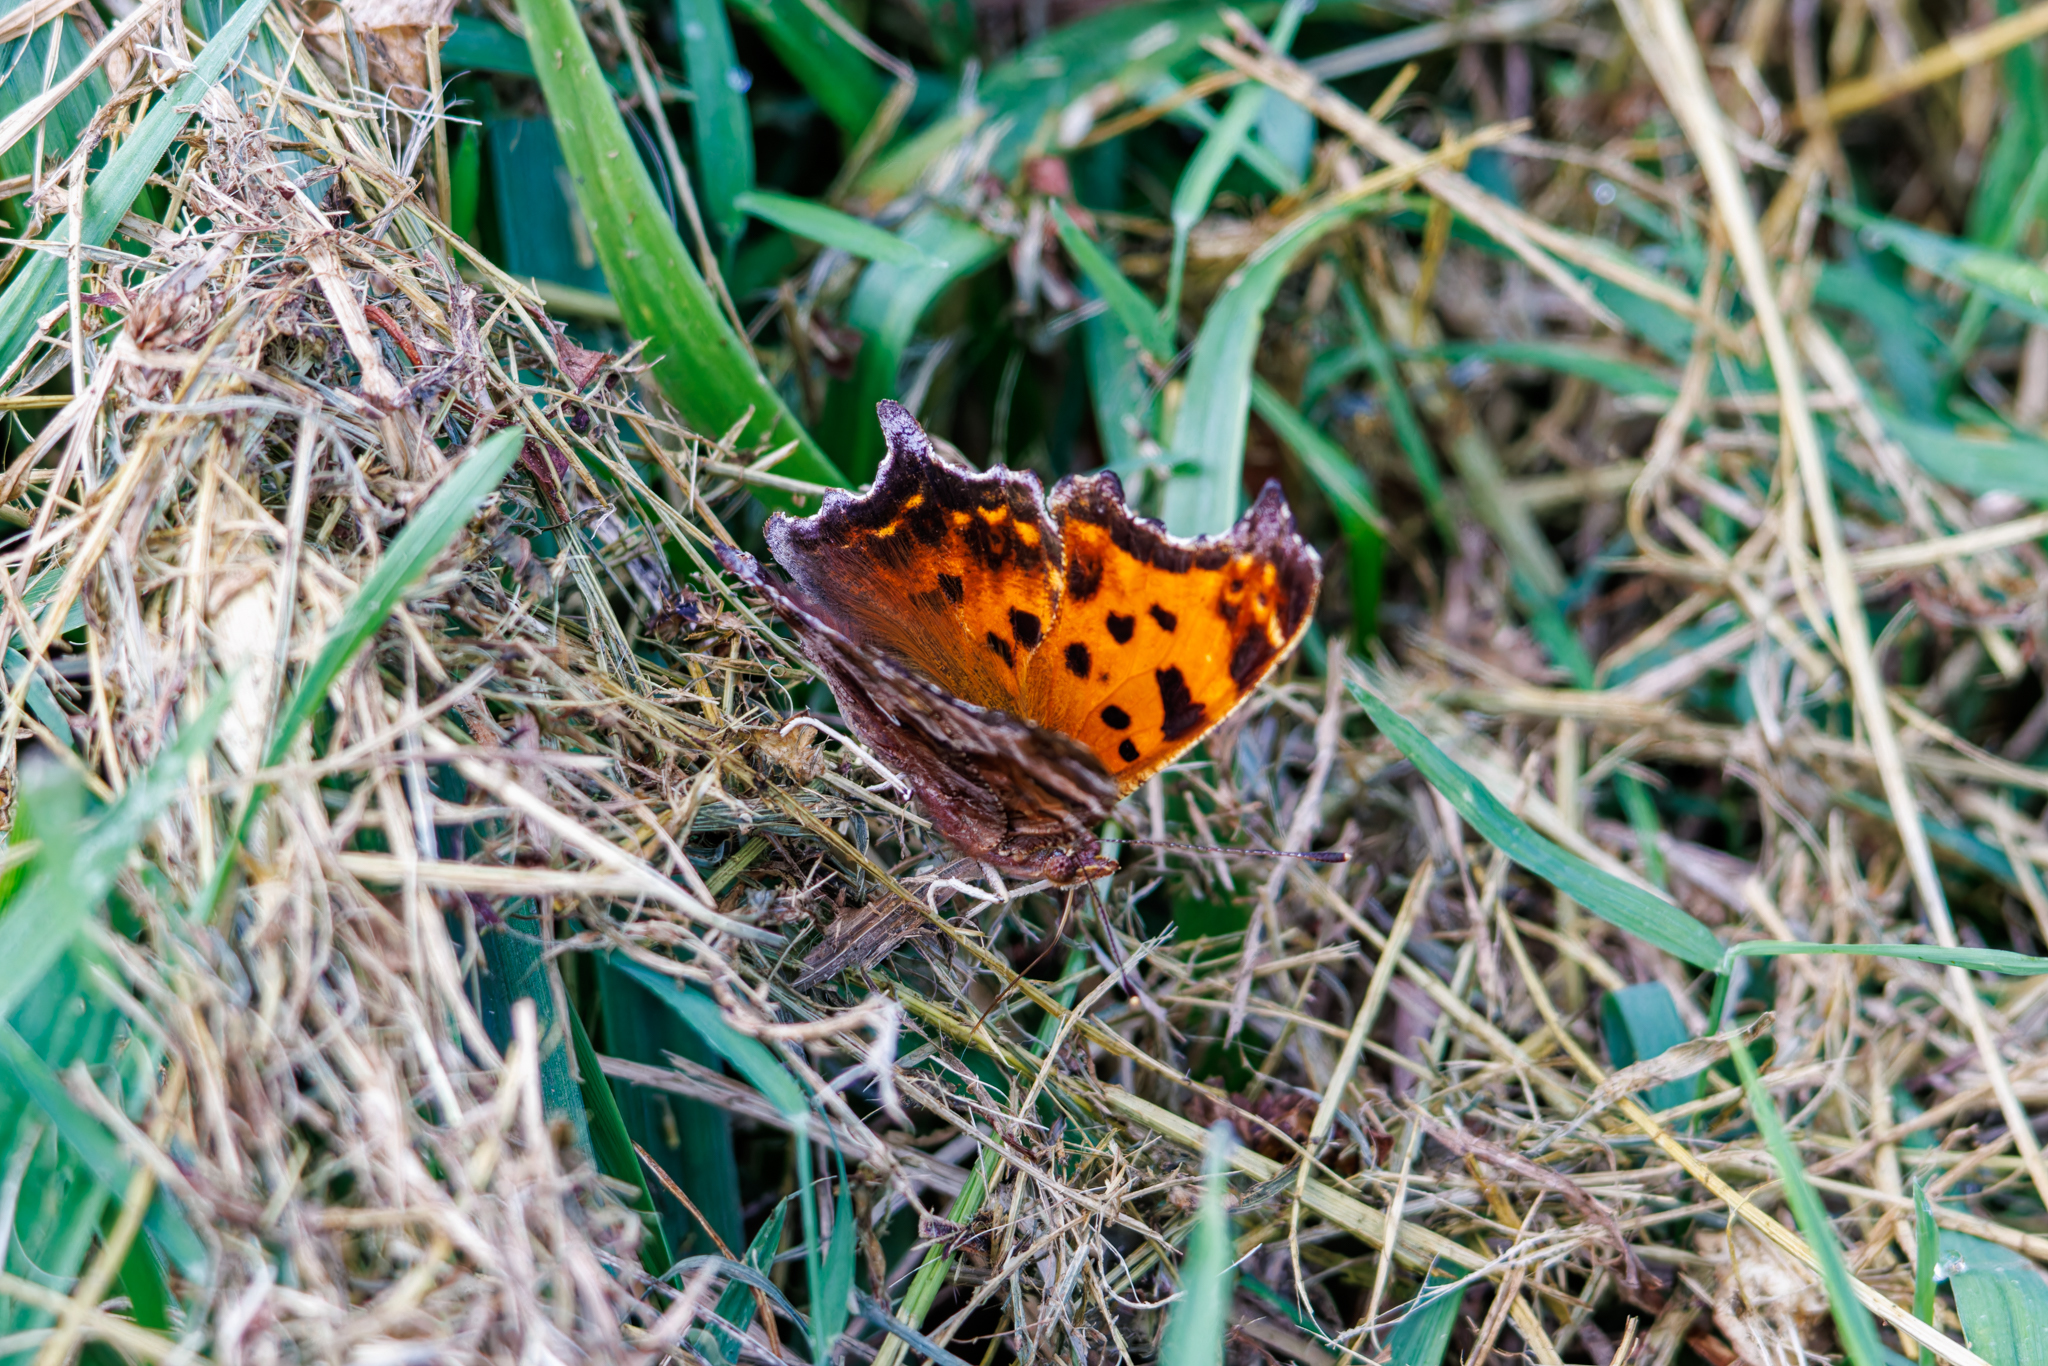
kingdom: Animalia
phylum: Arthropoda
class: Insecta
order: Lepidoptera
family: Nymphalidae
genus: Polygonia
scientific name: Polygonia comma
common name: Eastern comma
